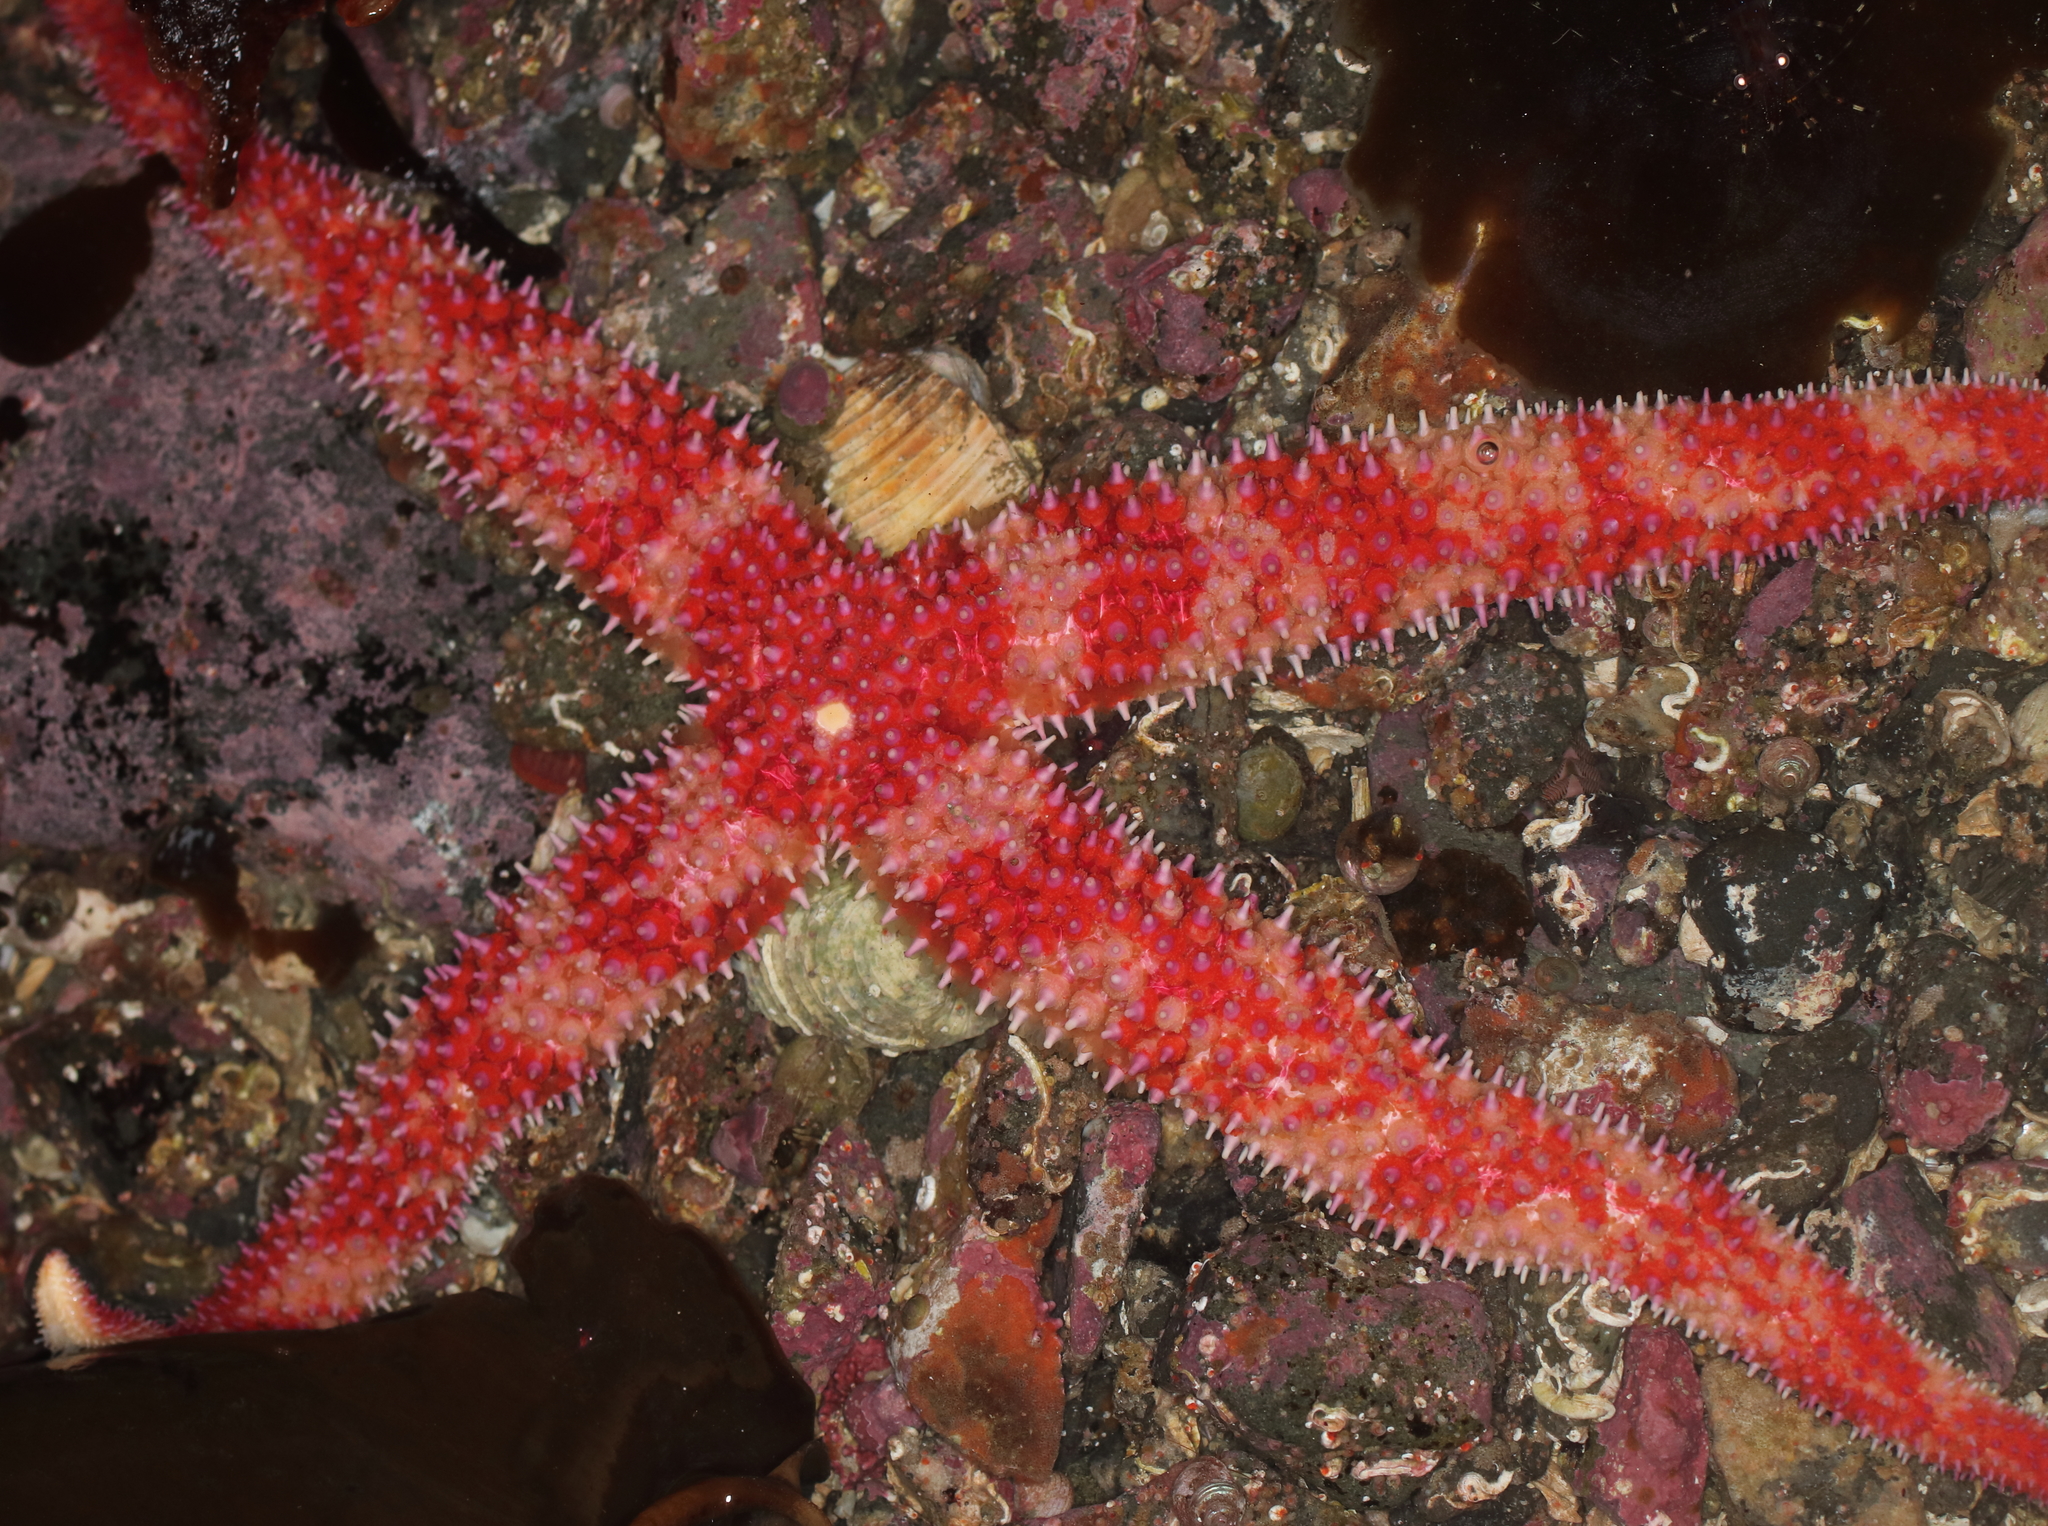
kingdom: Animalia
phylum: Echinodermata
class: Asteroidea
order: Forcipulatida
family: Asteriidae
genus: Orthasterias
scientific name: Orthasterias koehleri
